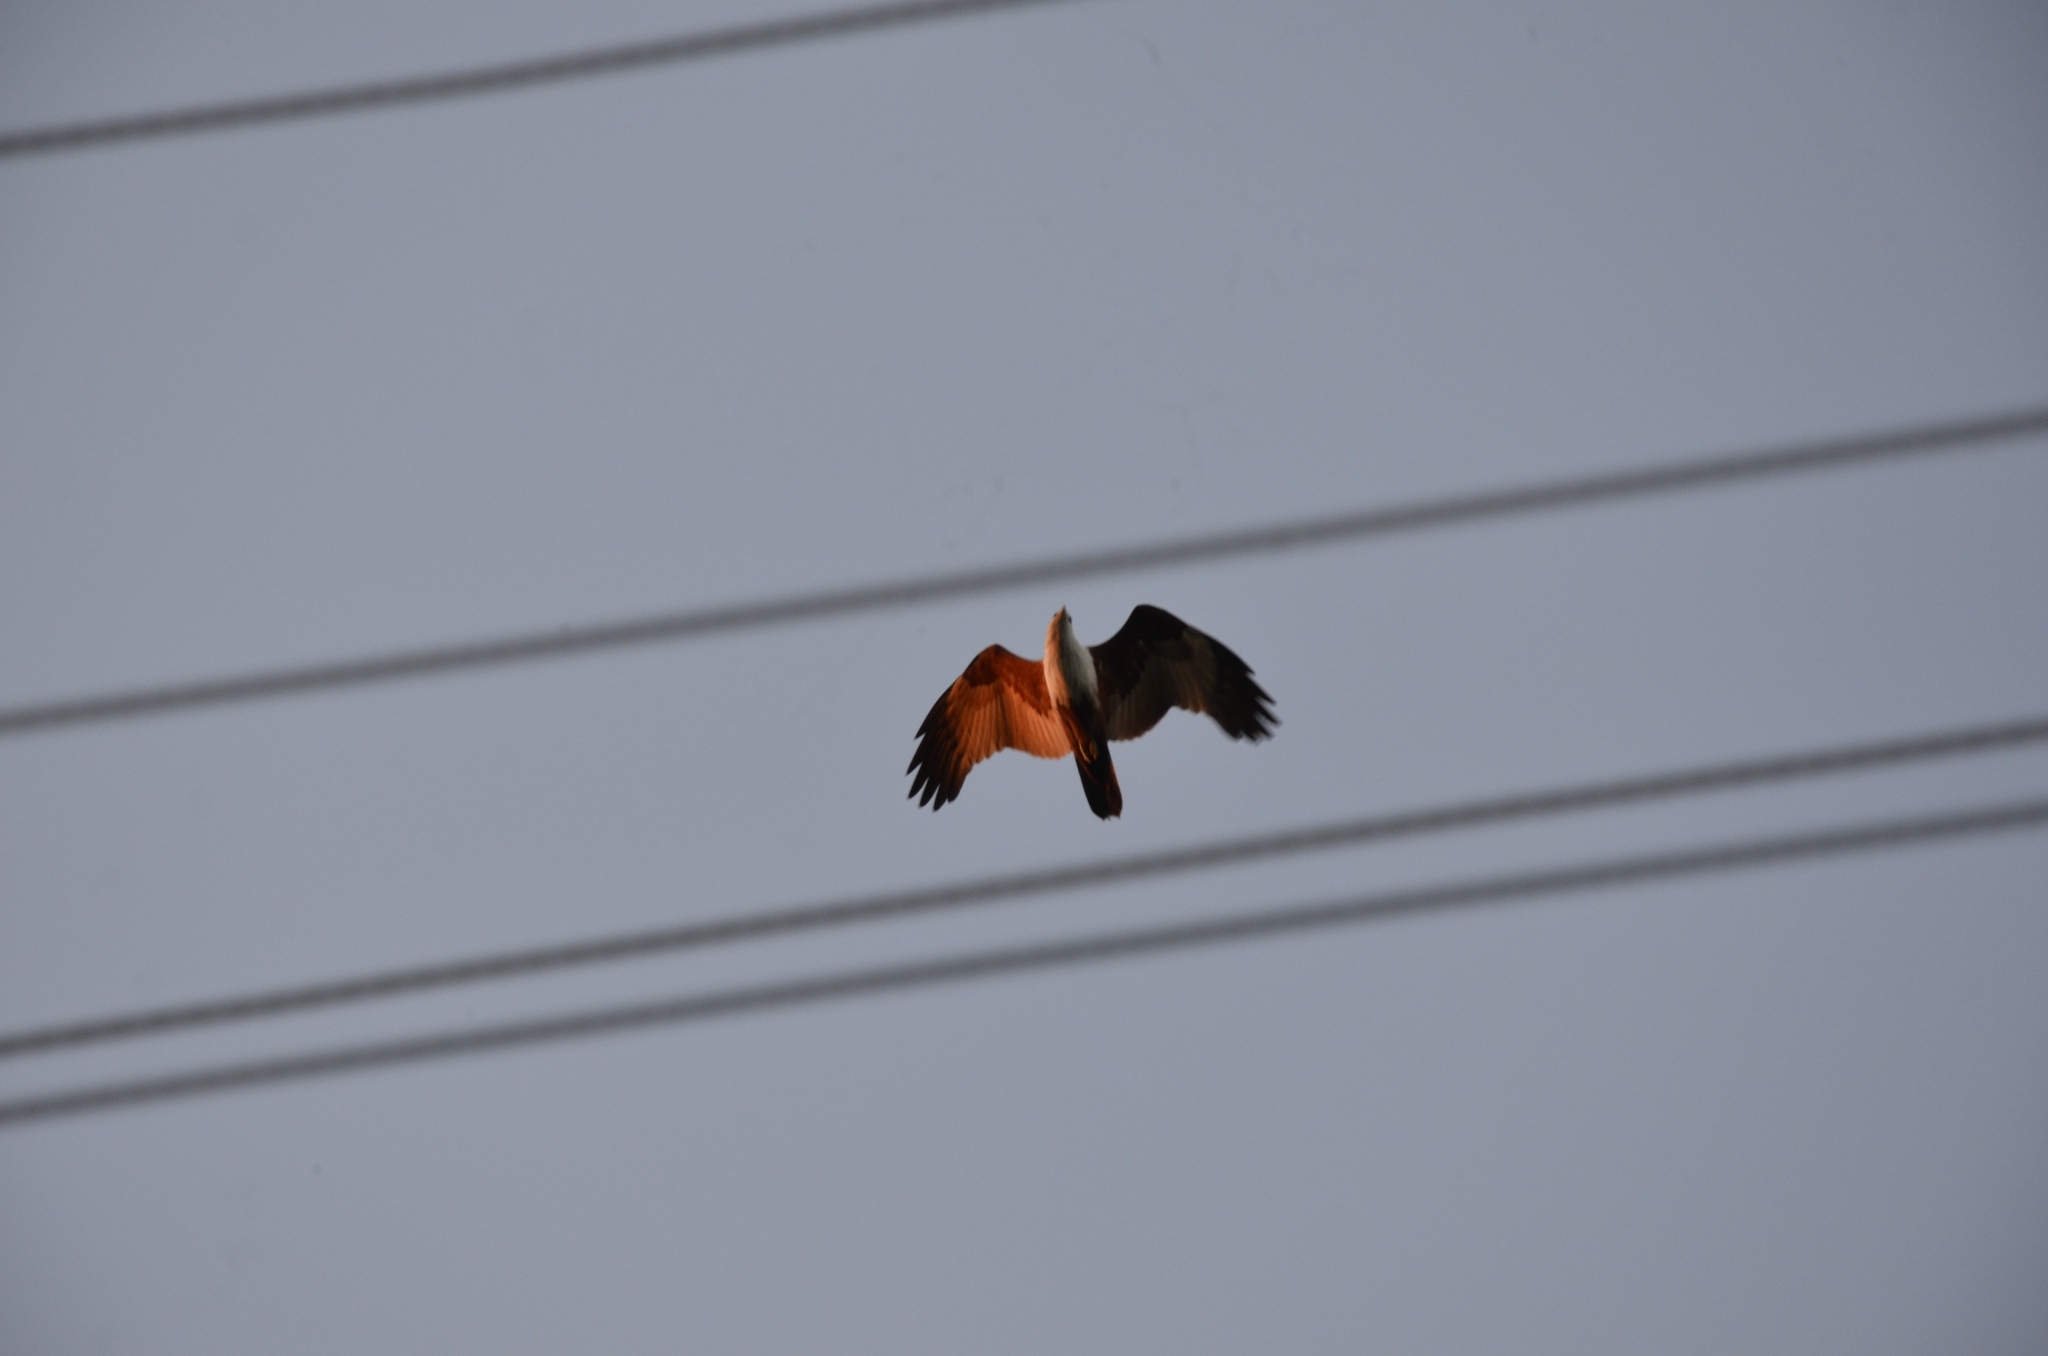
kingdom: Animalia
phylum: Chordata
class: Aves
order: Accipitriformes
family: Accipitridae
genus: Haliastur
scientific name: Haliastur indus
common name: Brahminy kite
